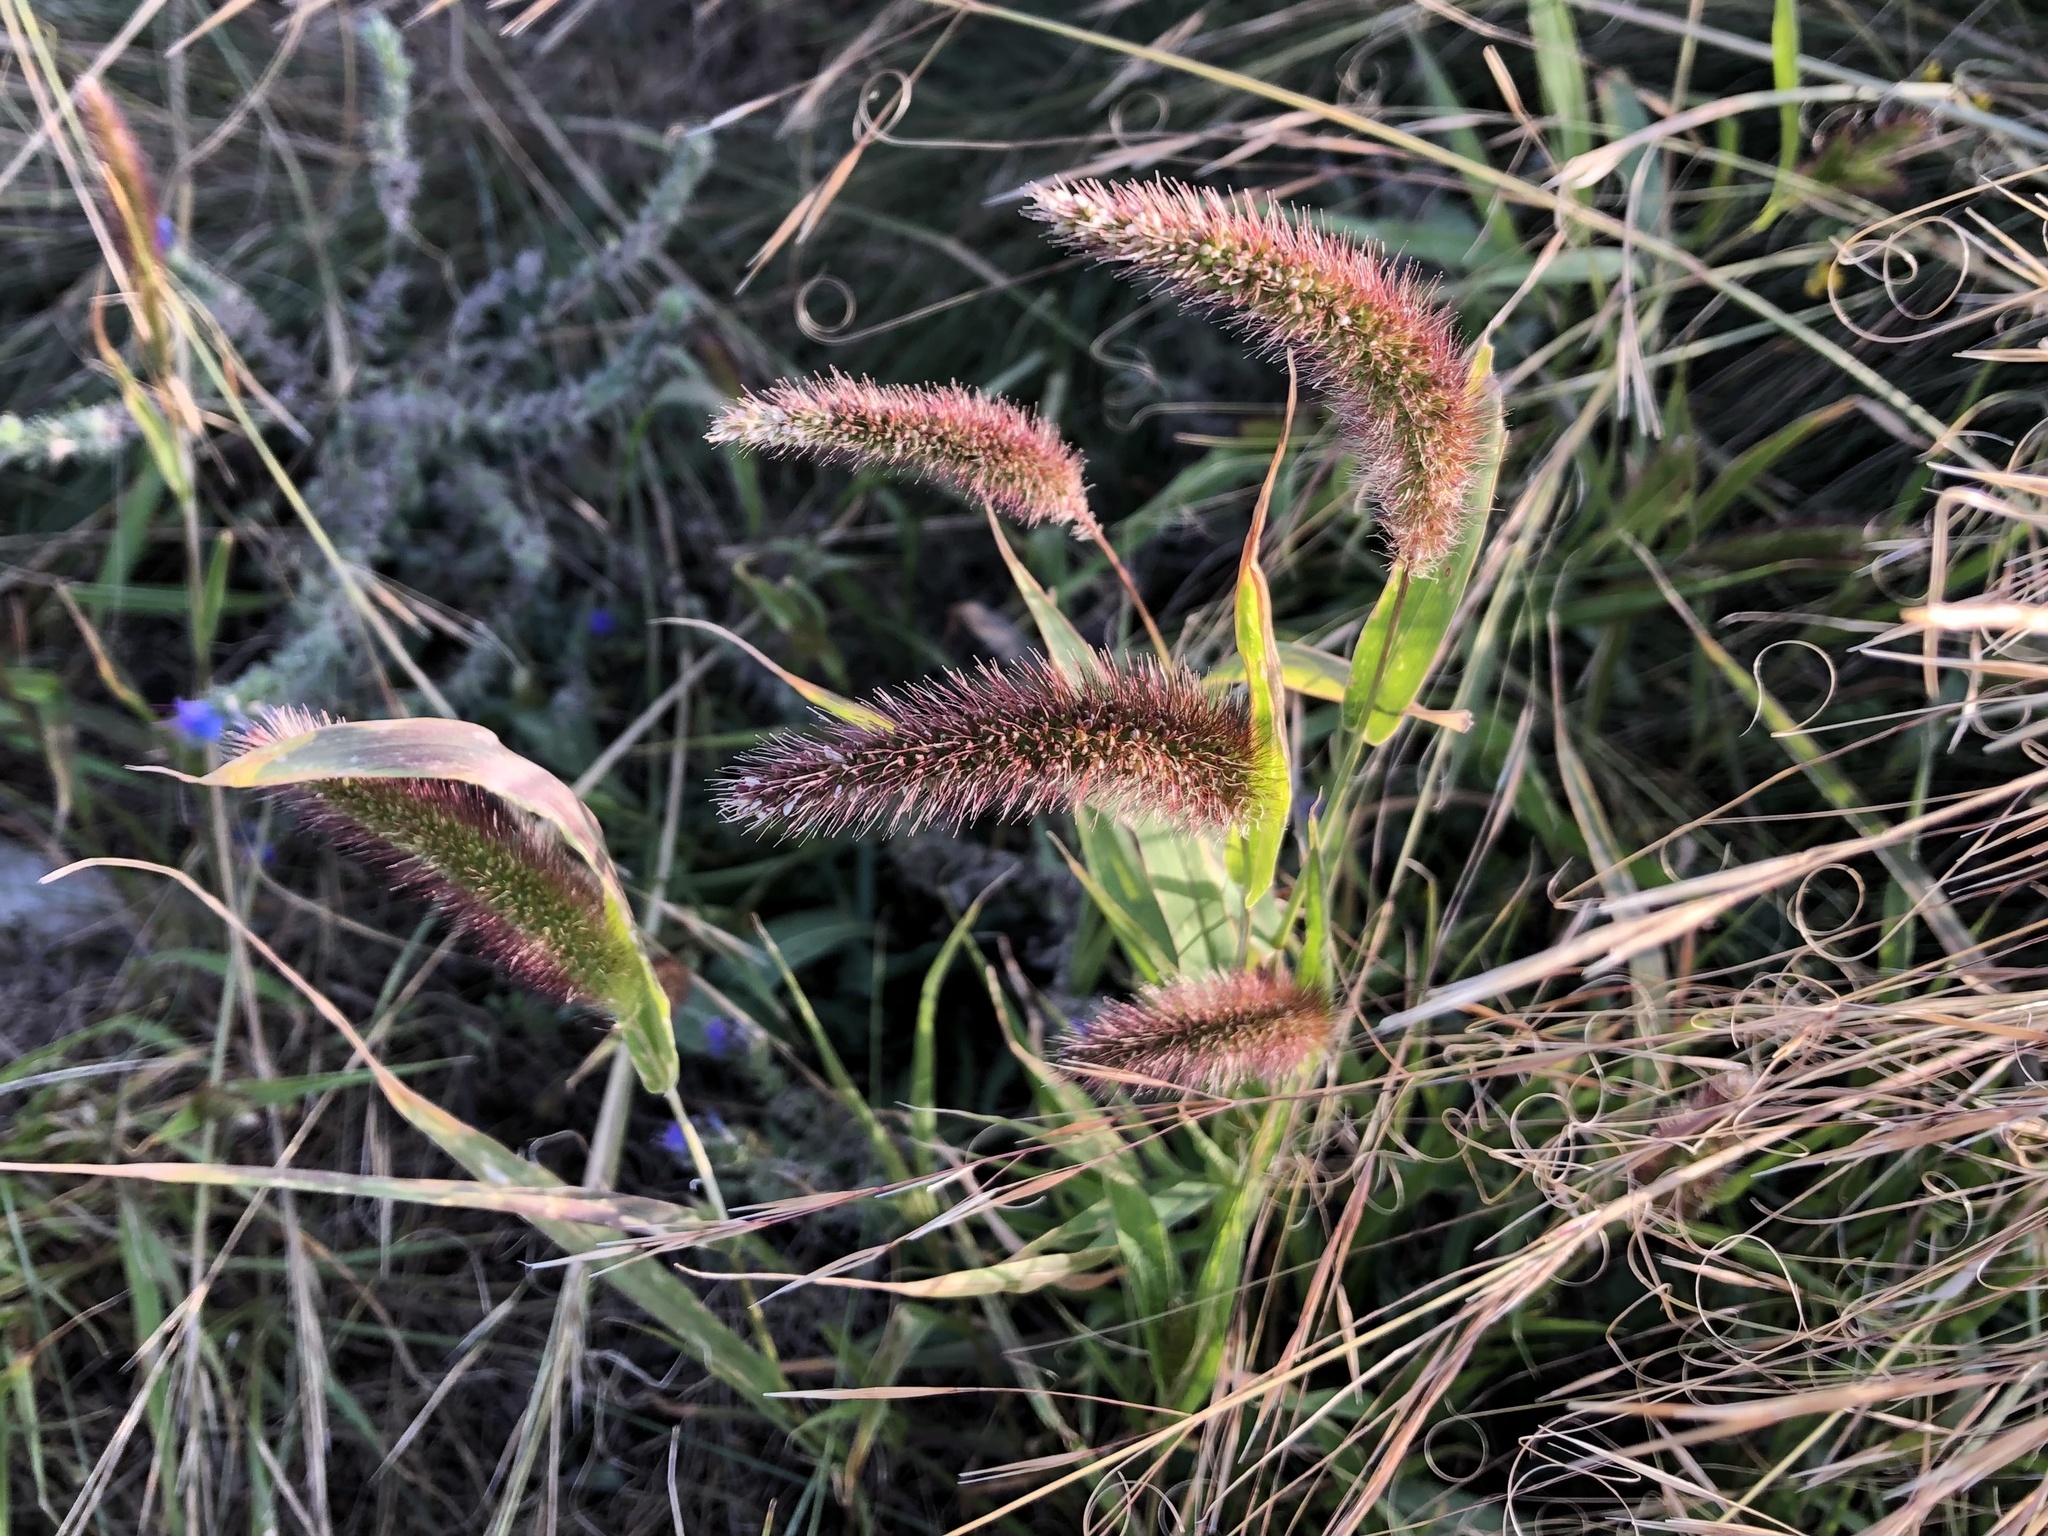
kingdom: Plantae
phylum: Tracheophyta
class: Liliopsida
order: Poales
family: Poaceae
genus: Setaria
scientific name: Setaria viridis
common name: Green bristlegrass
